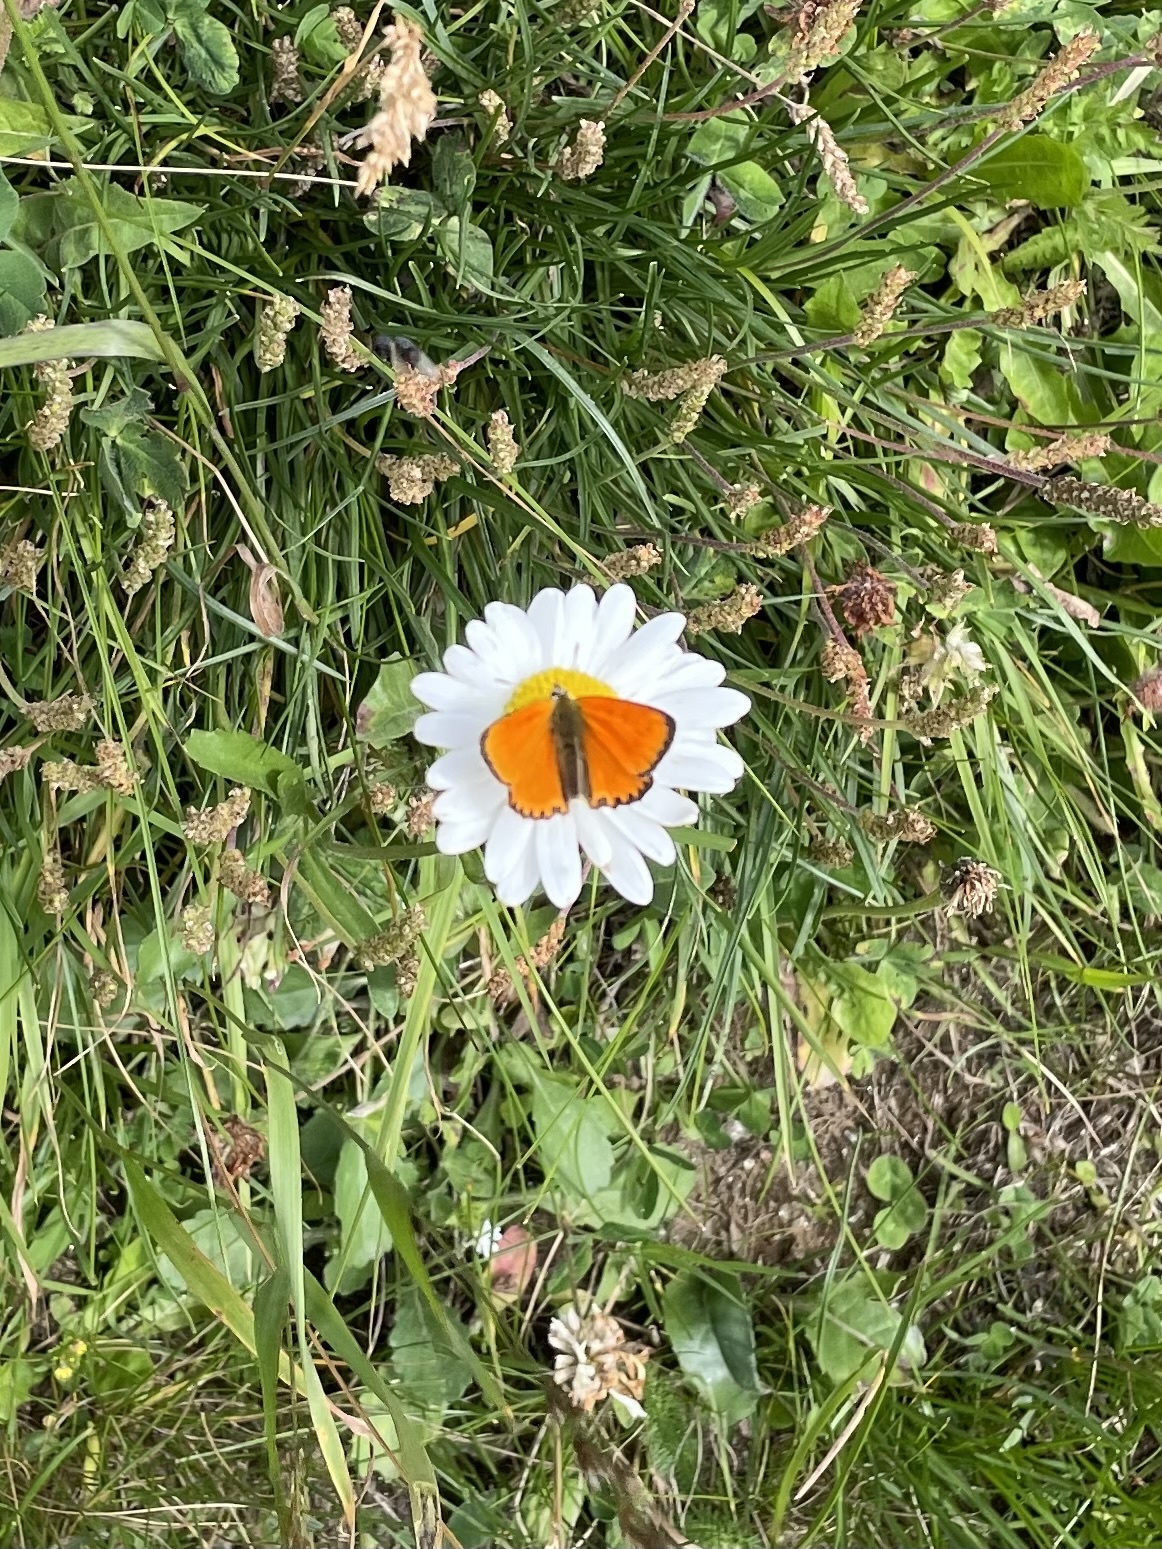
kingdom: Animalia
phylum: Arthropoda
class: Insecta
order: Lepidoptera
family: Lycaenidae
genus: Lycaena
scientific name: Lycaena virgaureae
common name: Scarce copper
